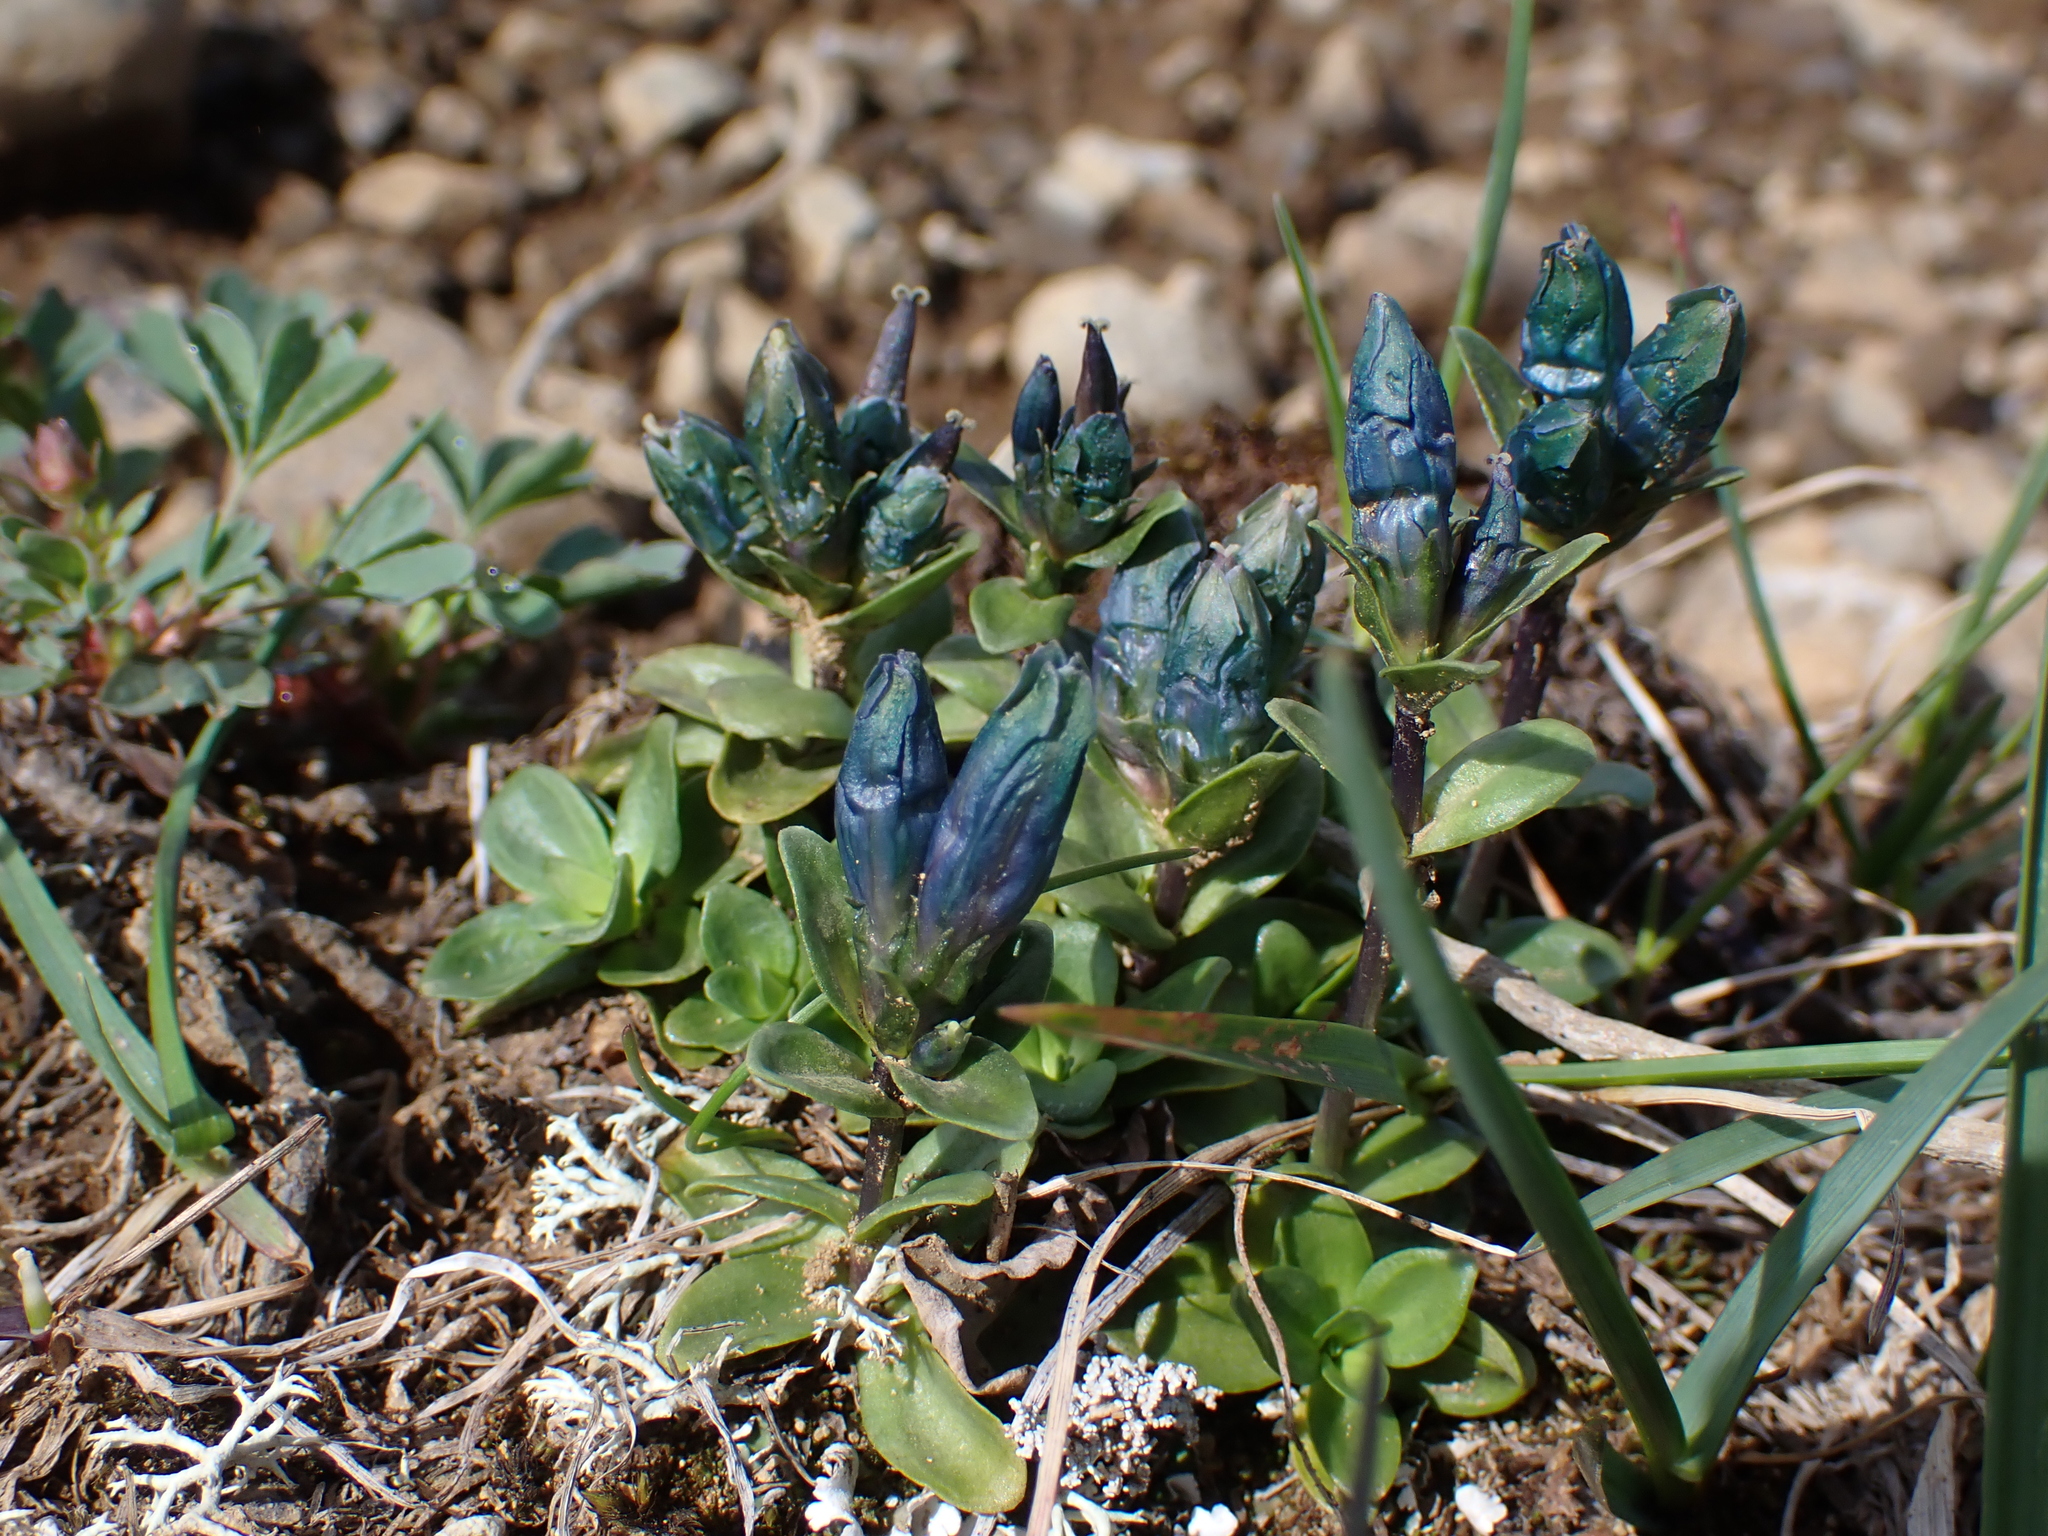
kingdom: Plantae
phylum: Tracheophyta
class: Magnoliopsida
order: Gentianales
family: Gentianaceae
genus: Gentiana
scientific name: Gentiana glauca
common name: Alpine gentian
